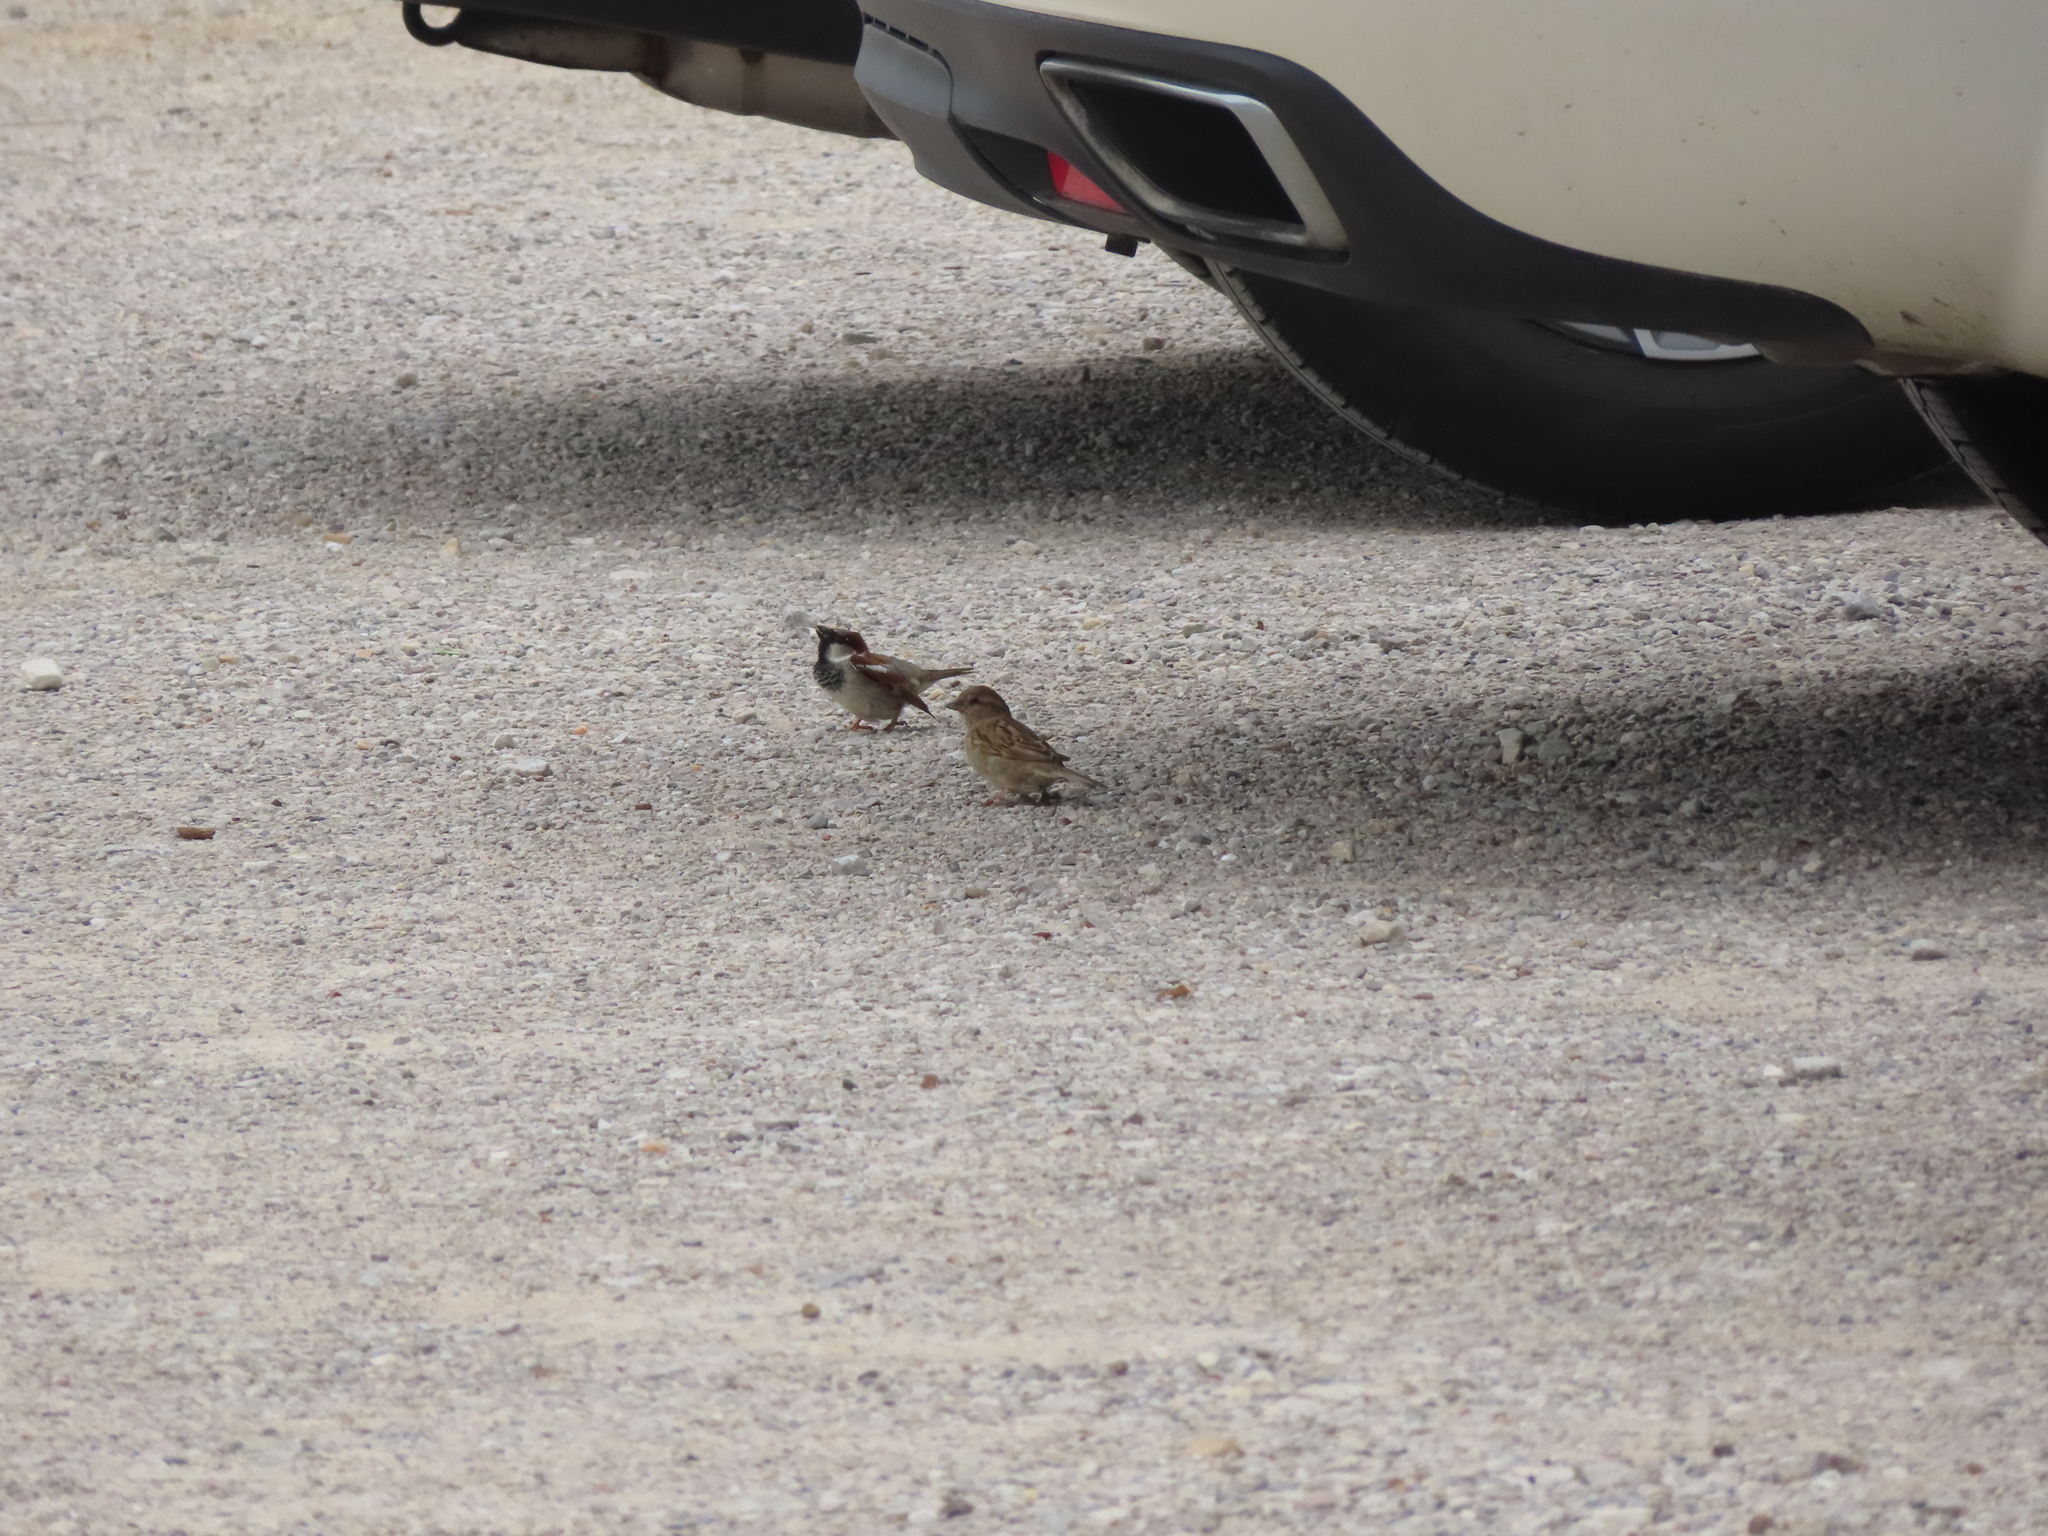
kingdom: Animalia
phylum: Chordata
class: Aves
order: Passeriformes
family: Passeridae
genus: Passer
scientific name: Passer domesticus
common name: House sparrow
